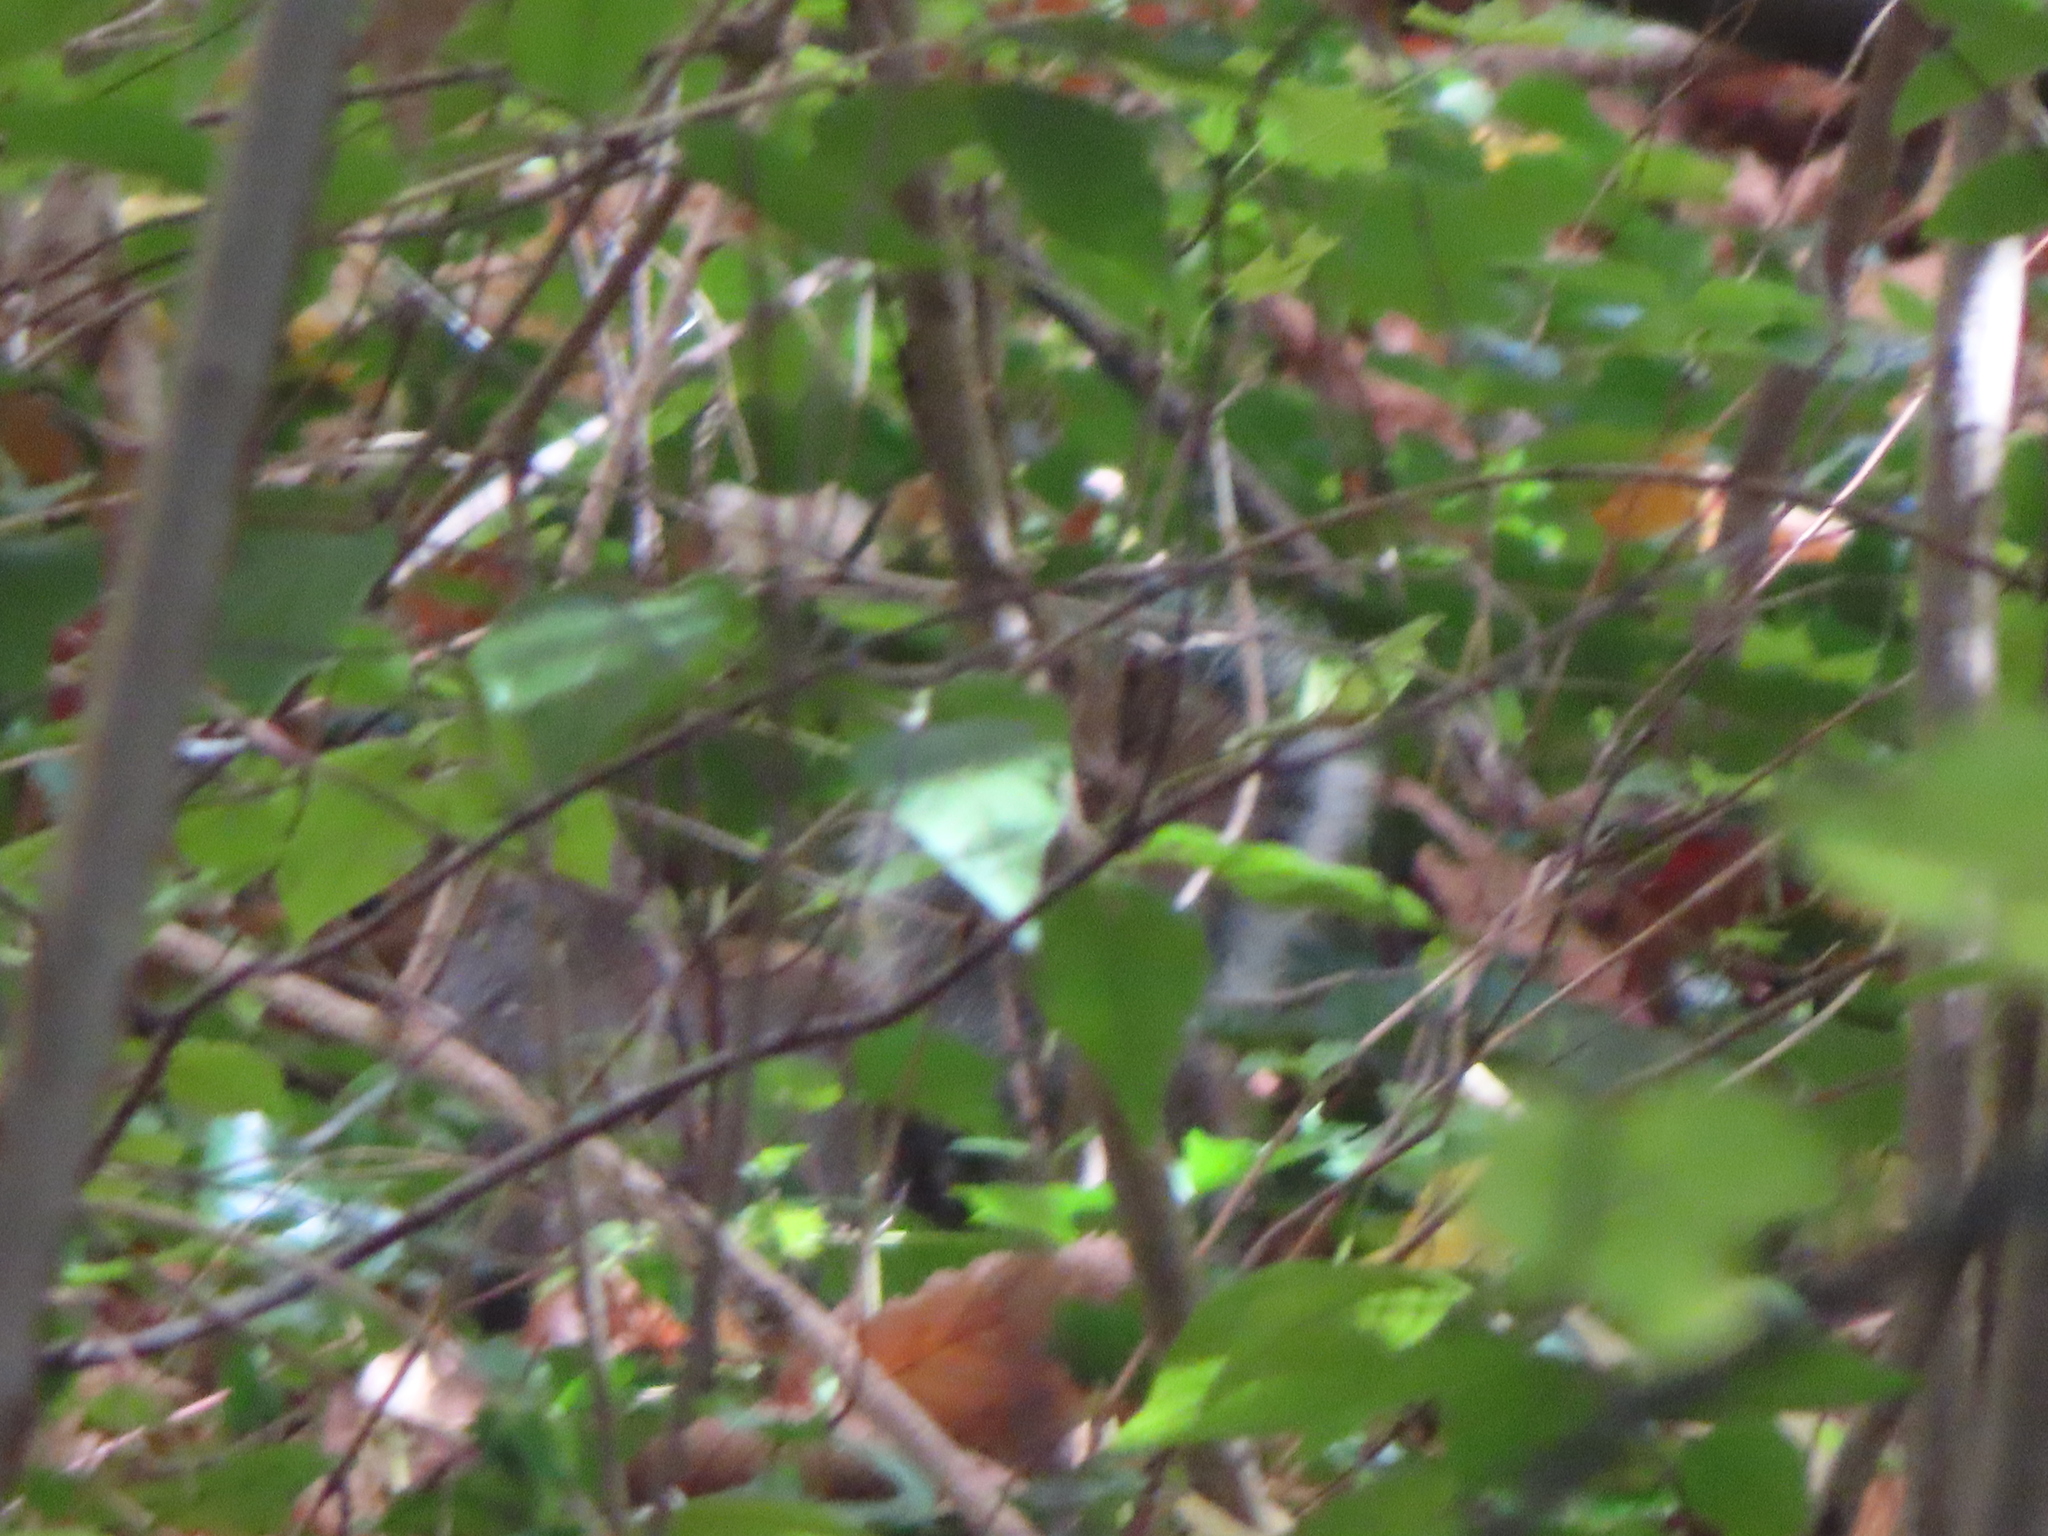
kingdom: Animalia
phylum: Chordata
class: Mammalia
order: Rodentia
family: Sciuridae
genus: Sciurus
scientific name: Sciurus carolinensis
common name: Eastern gray squirrel
